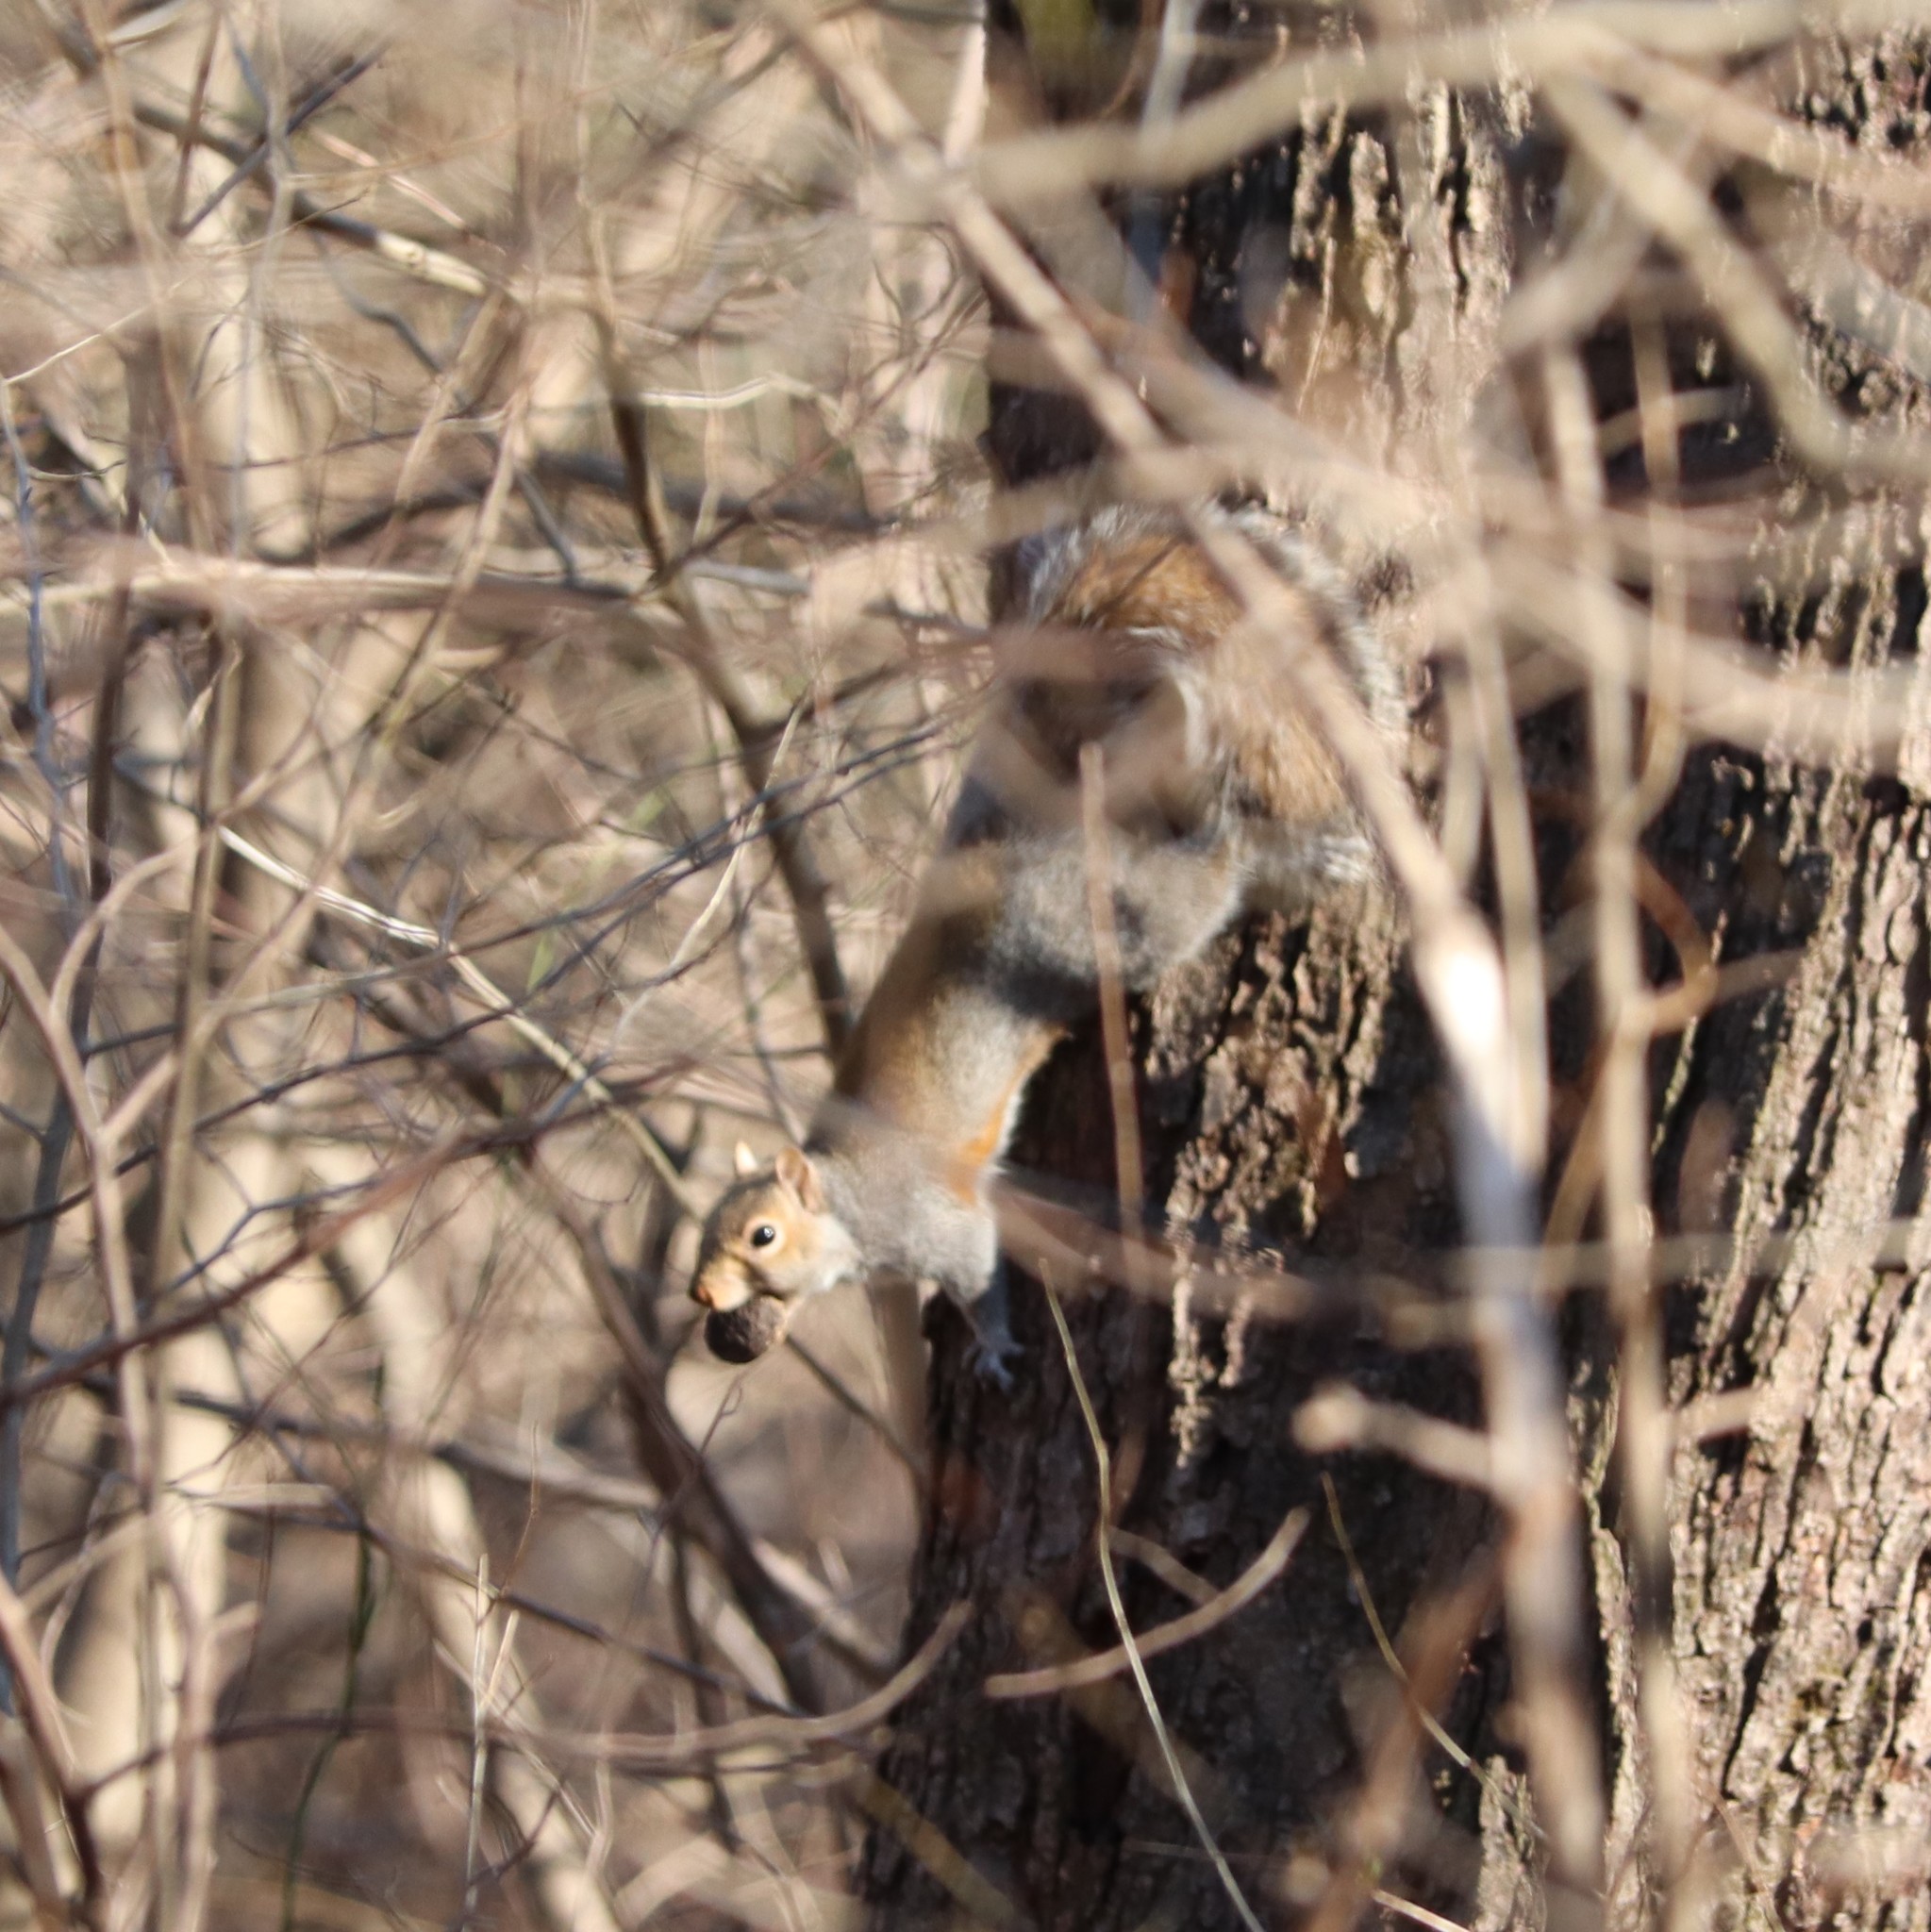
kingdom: Animalia
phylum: Chordata
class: Mammalia
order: Rodentia
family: Sciuridae
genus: Sciurus
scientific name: Sciurus carolinensis
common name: Eastern gray squirrel
